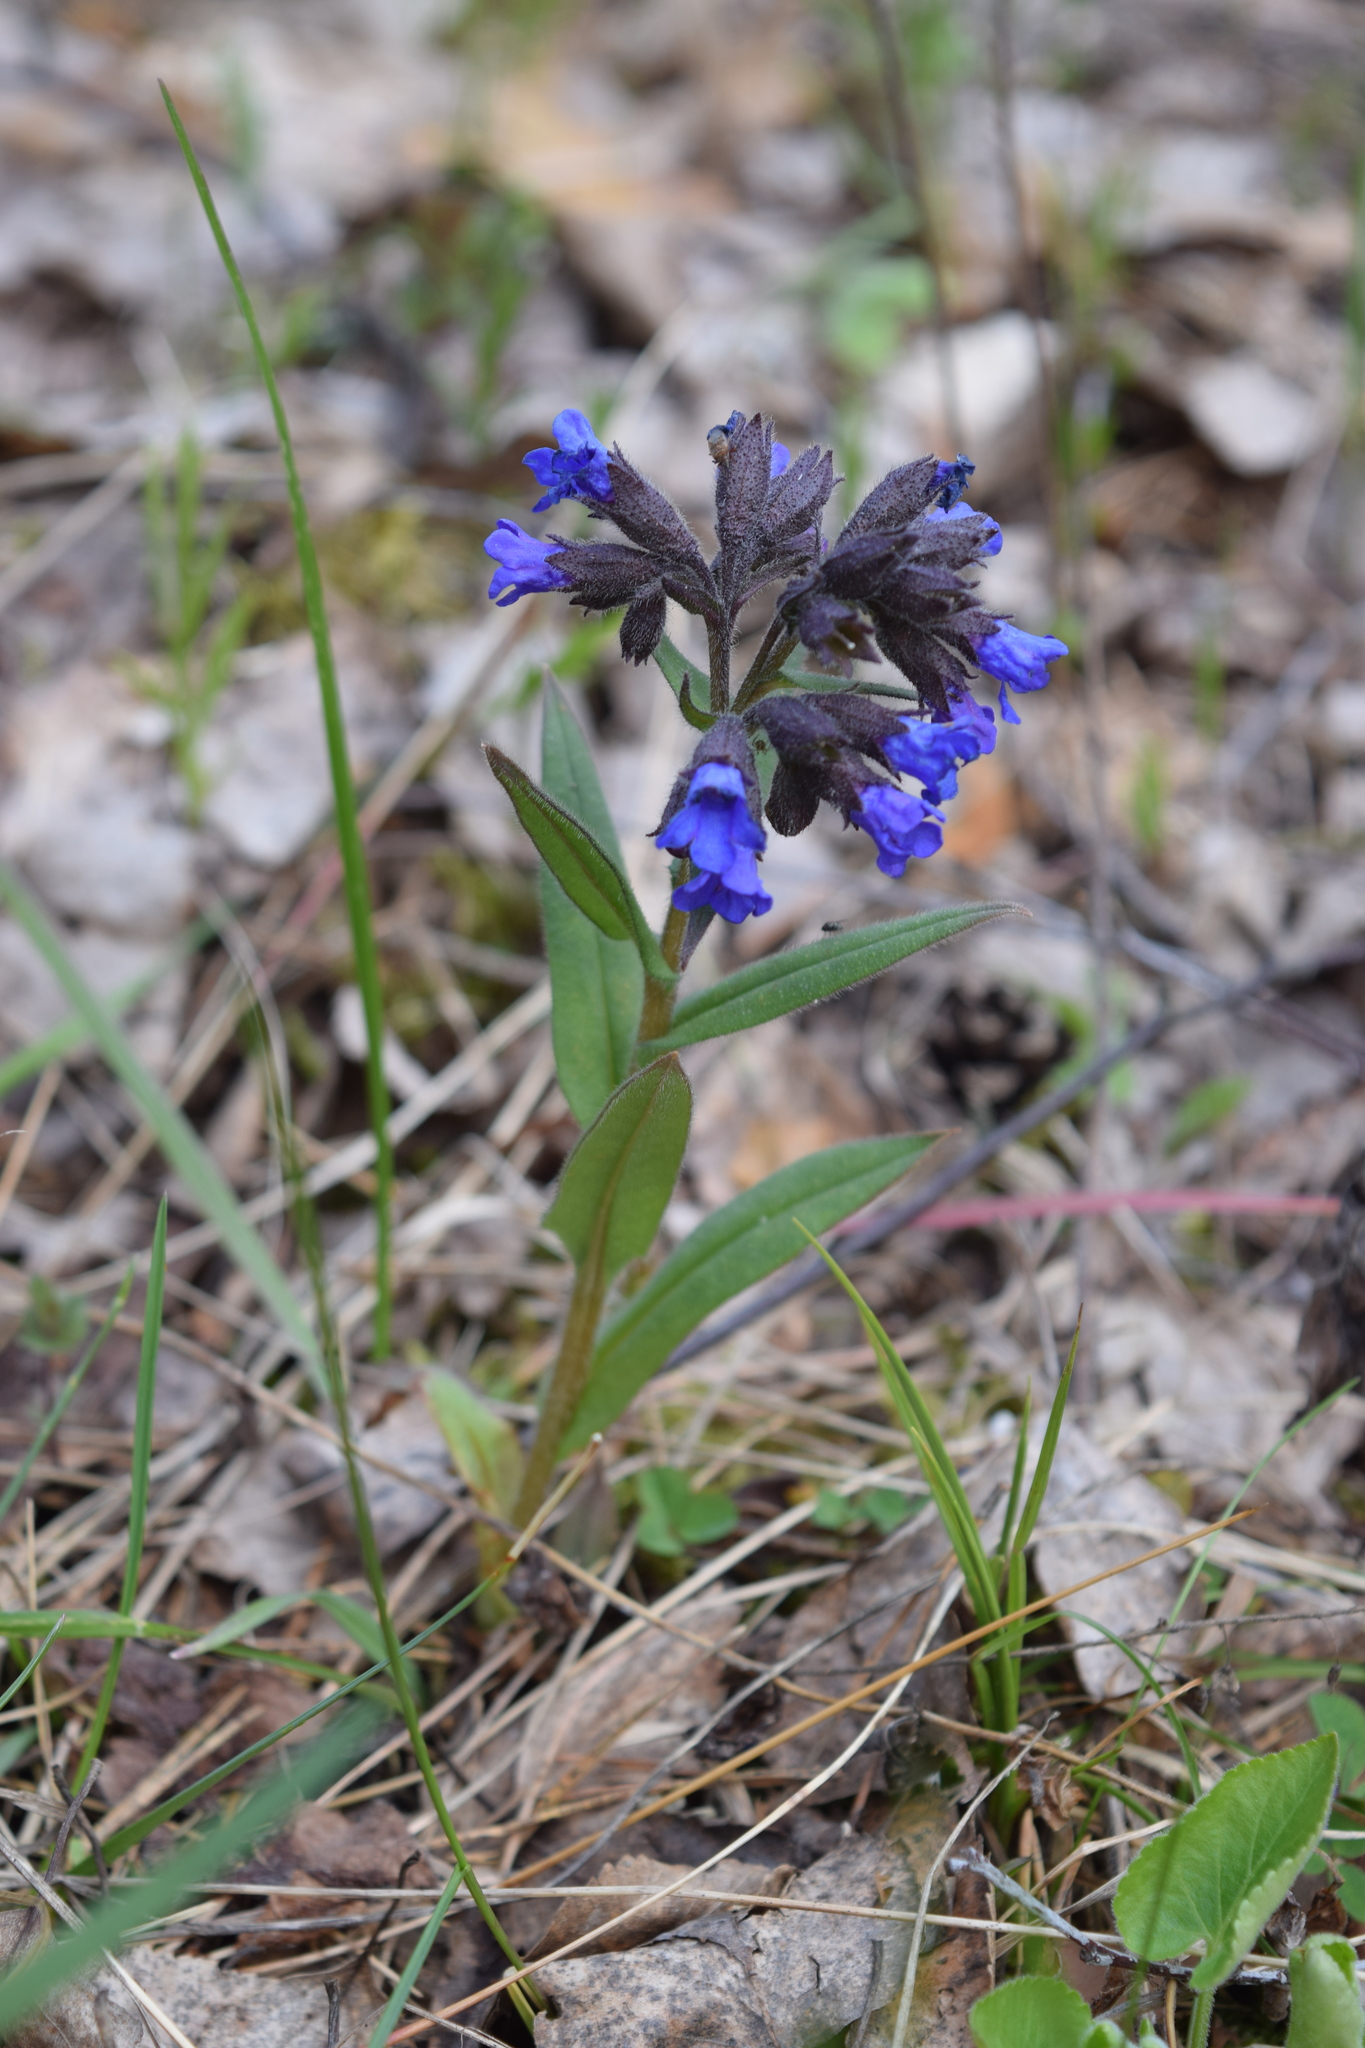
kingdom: Plantae
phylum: Tracheophyta
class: Magnoliopsida
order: Boraginales
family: Boraginaceae
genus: Pulmonaria
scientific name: Pulmonaria angustifolia
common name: Blue cowslip
